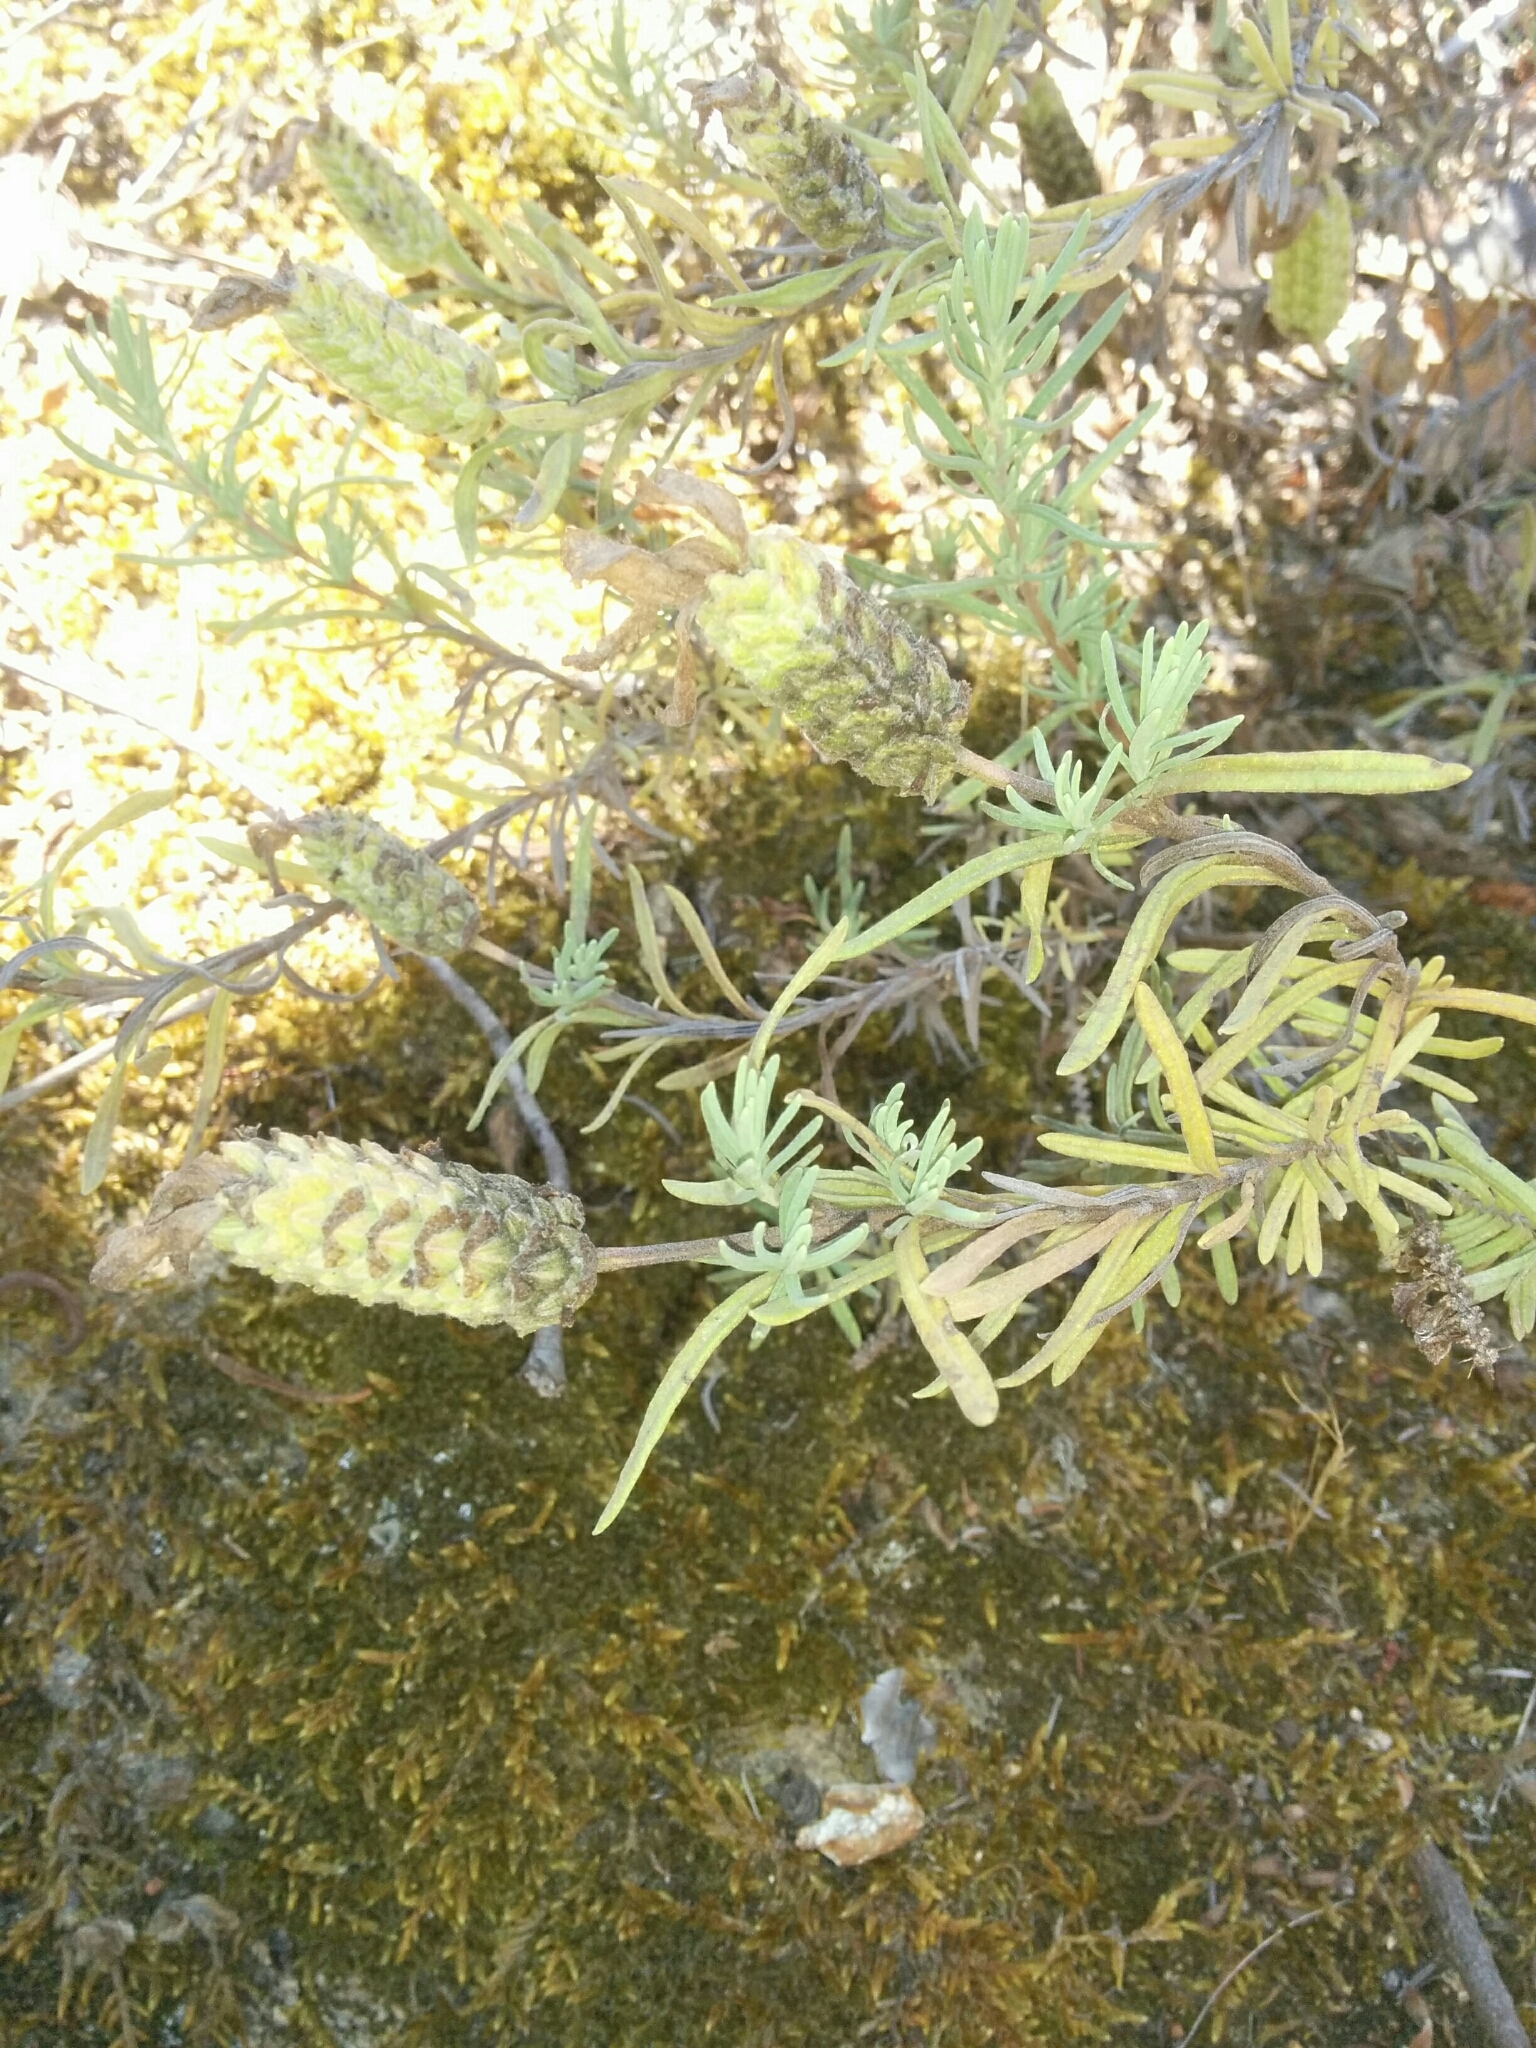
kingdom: Plantae
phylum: Tracheophyta
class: Magnoliopsida
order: Lamiales
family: Lamiaceae
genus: Lavandula
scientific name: Lavandula stoechas
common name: French lavender
